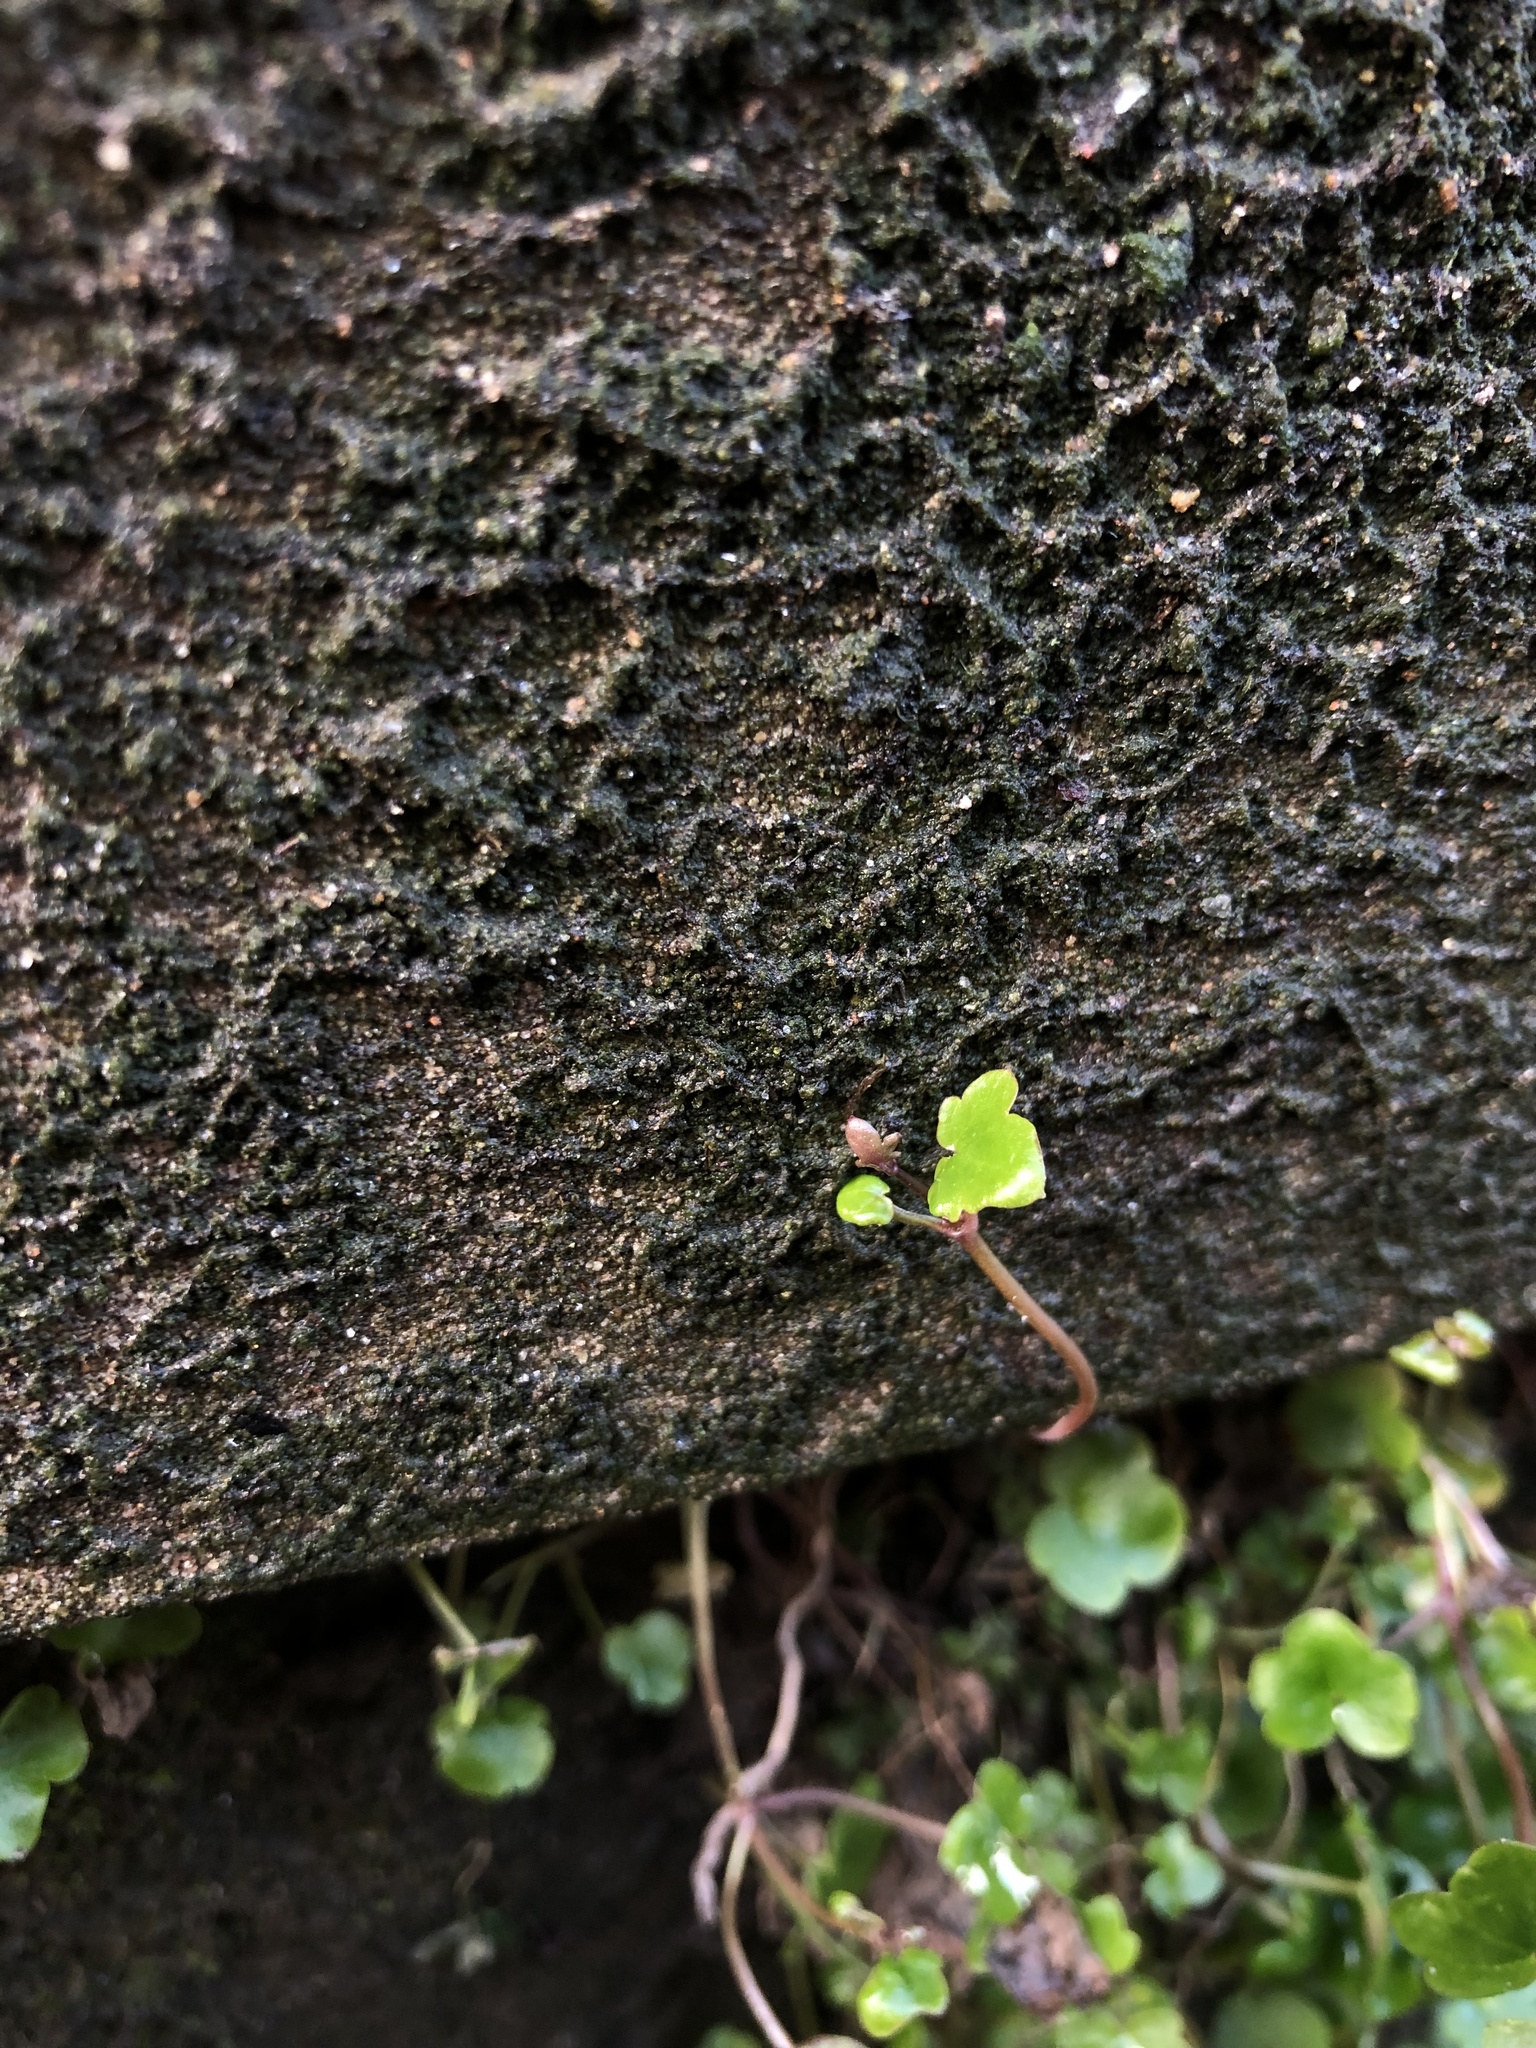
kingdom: Plantae
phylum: Tracheophyta
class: Magnoliopsida
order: Lamiales
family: Plantaginaceae
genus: Cymbalaria
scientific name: Cymbalaria muralis
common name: Ivy-leaved toadflax
